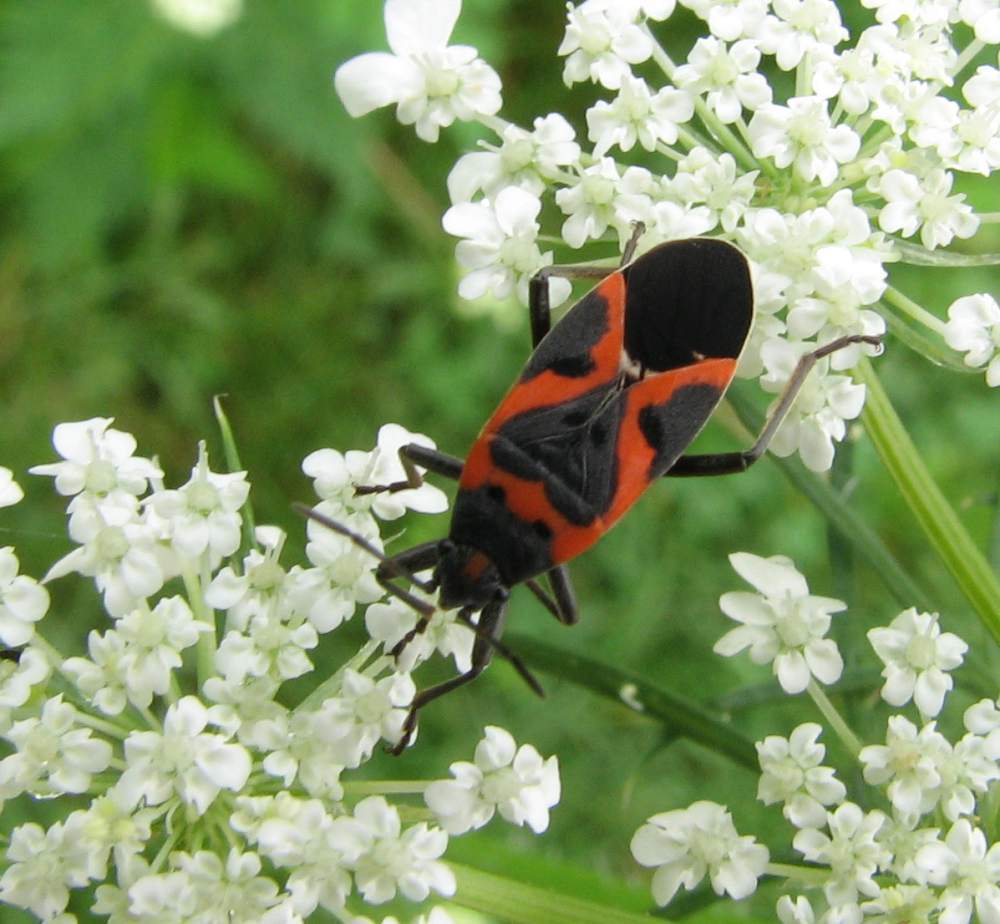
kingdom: Animalia
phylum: Arthropoda
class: Insecta
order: Hemiptera
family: Lygaeidae
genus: Lygaeus
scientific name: Lygaeus kalmii
